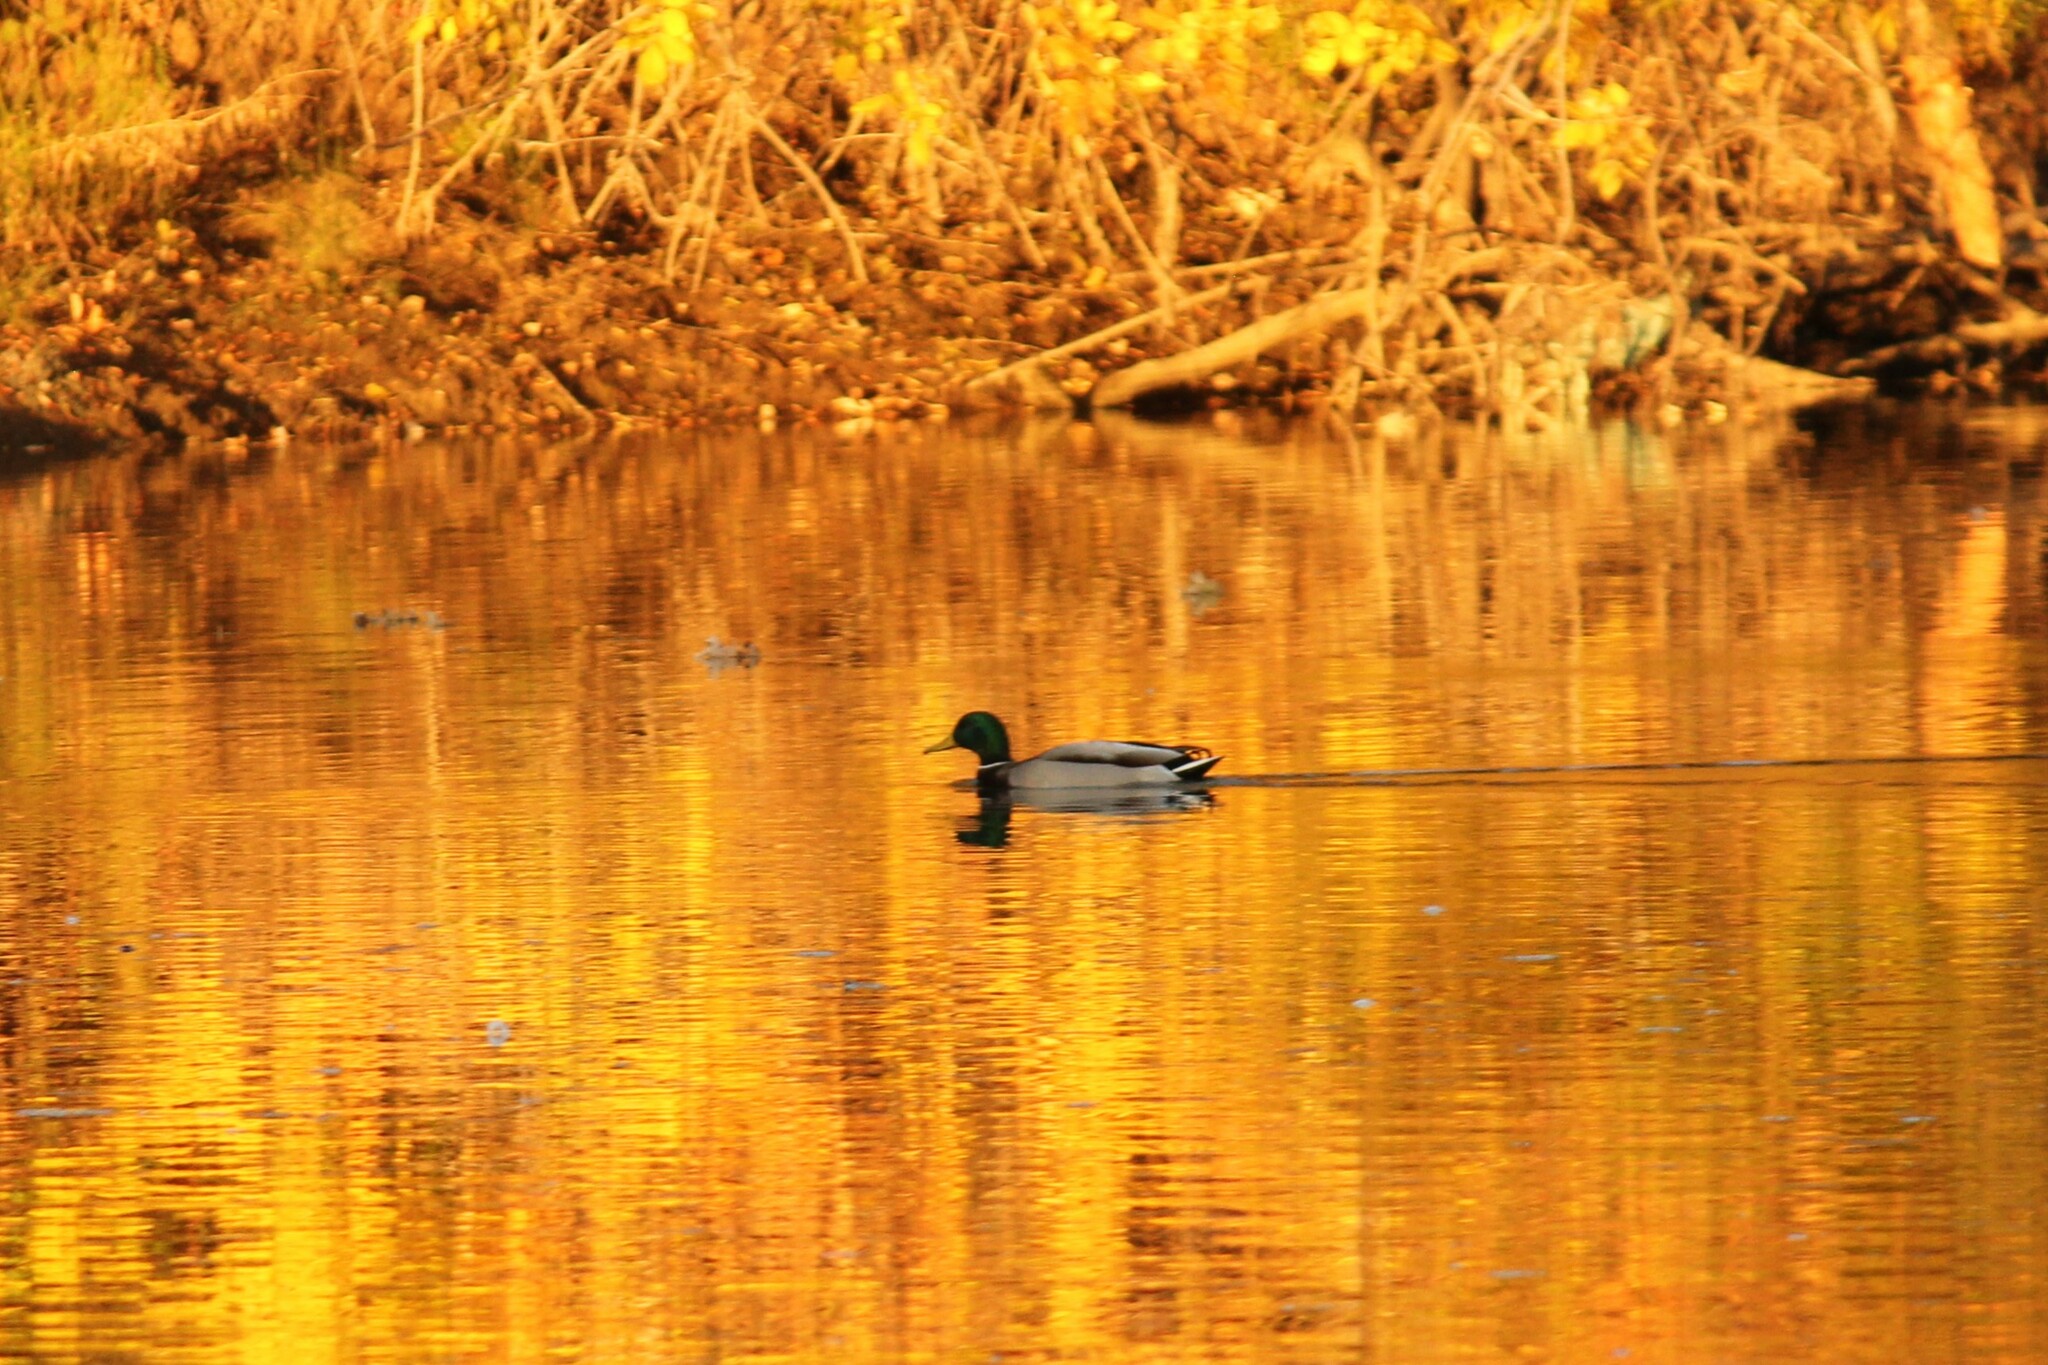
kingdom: Animalia
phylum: Chordata
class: Aves
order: Anseriformes
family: Anatidae
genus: Anas
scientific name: Anas platyrhynchos
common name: Mallard
